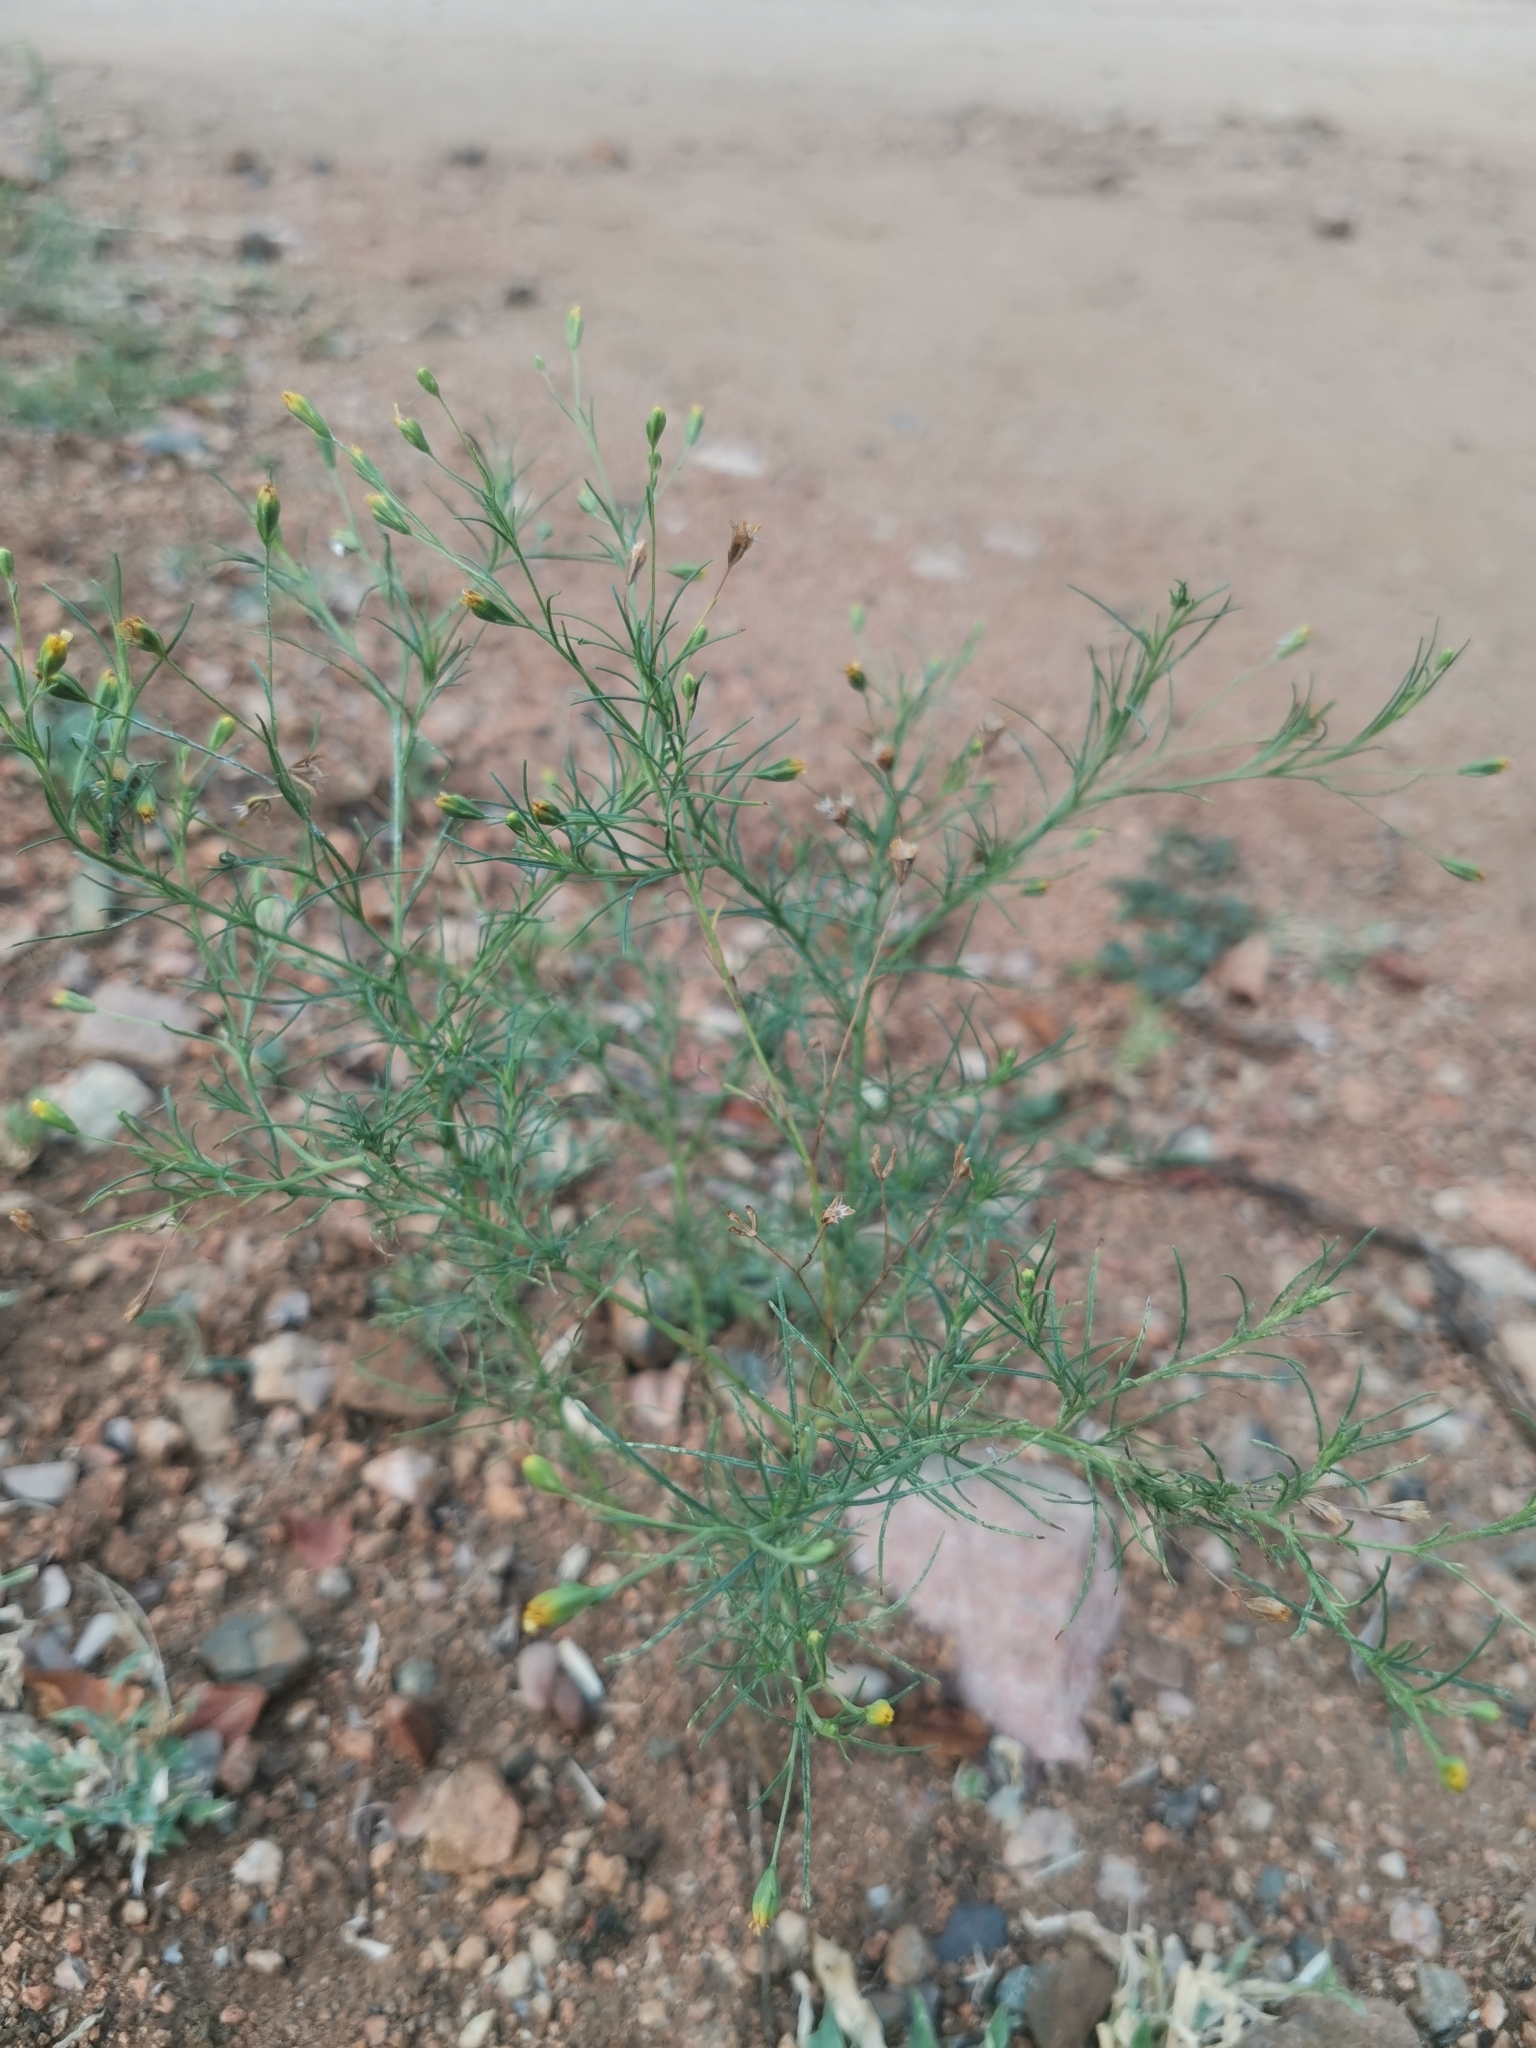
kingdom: Plantae
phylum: Tracheophyta
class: Magnoliopsida
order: Asterales
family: Asteraceae
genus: Schkuhria
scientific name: Schkuhria pinnata
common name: Dwarf marigold
